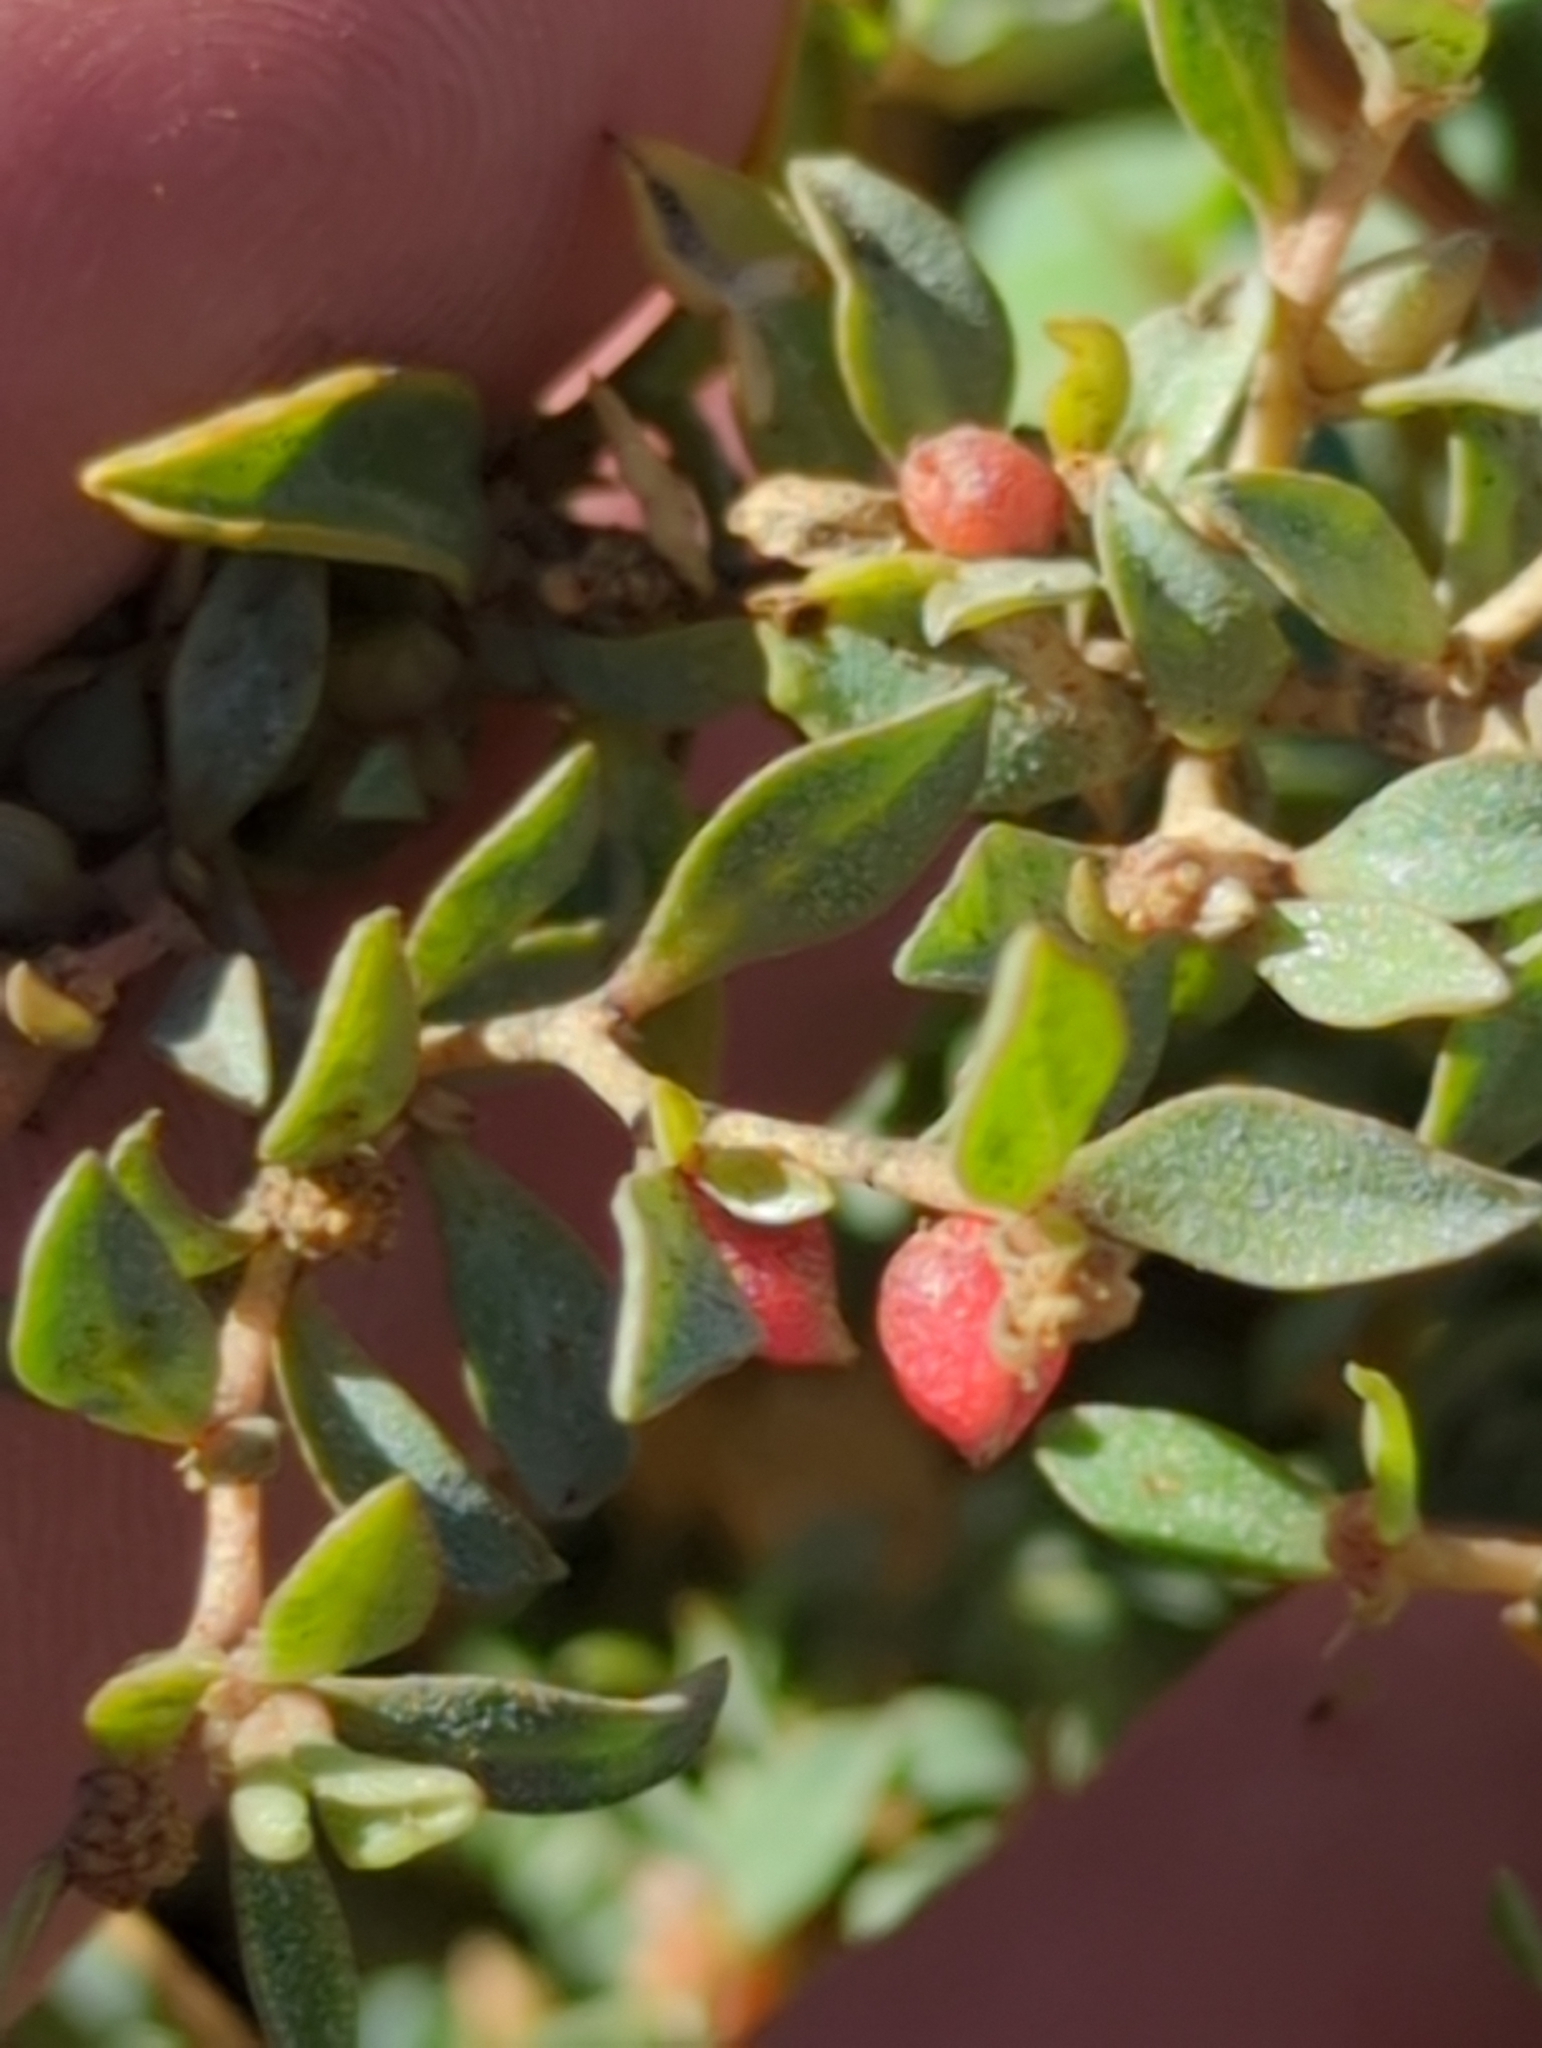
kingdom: Plantae
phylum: Tracheophyta
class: Magnoliopsida
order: Caryophyllales
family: Amaranthaceae
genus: Atriplex
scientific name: Atriplex semibaccata
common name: Australian saltbush
